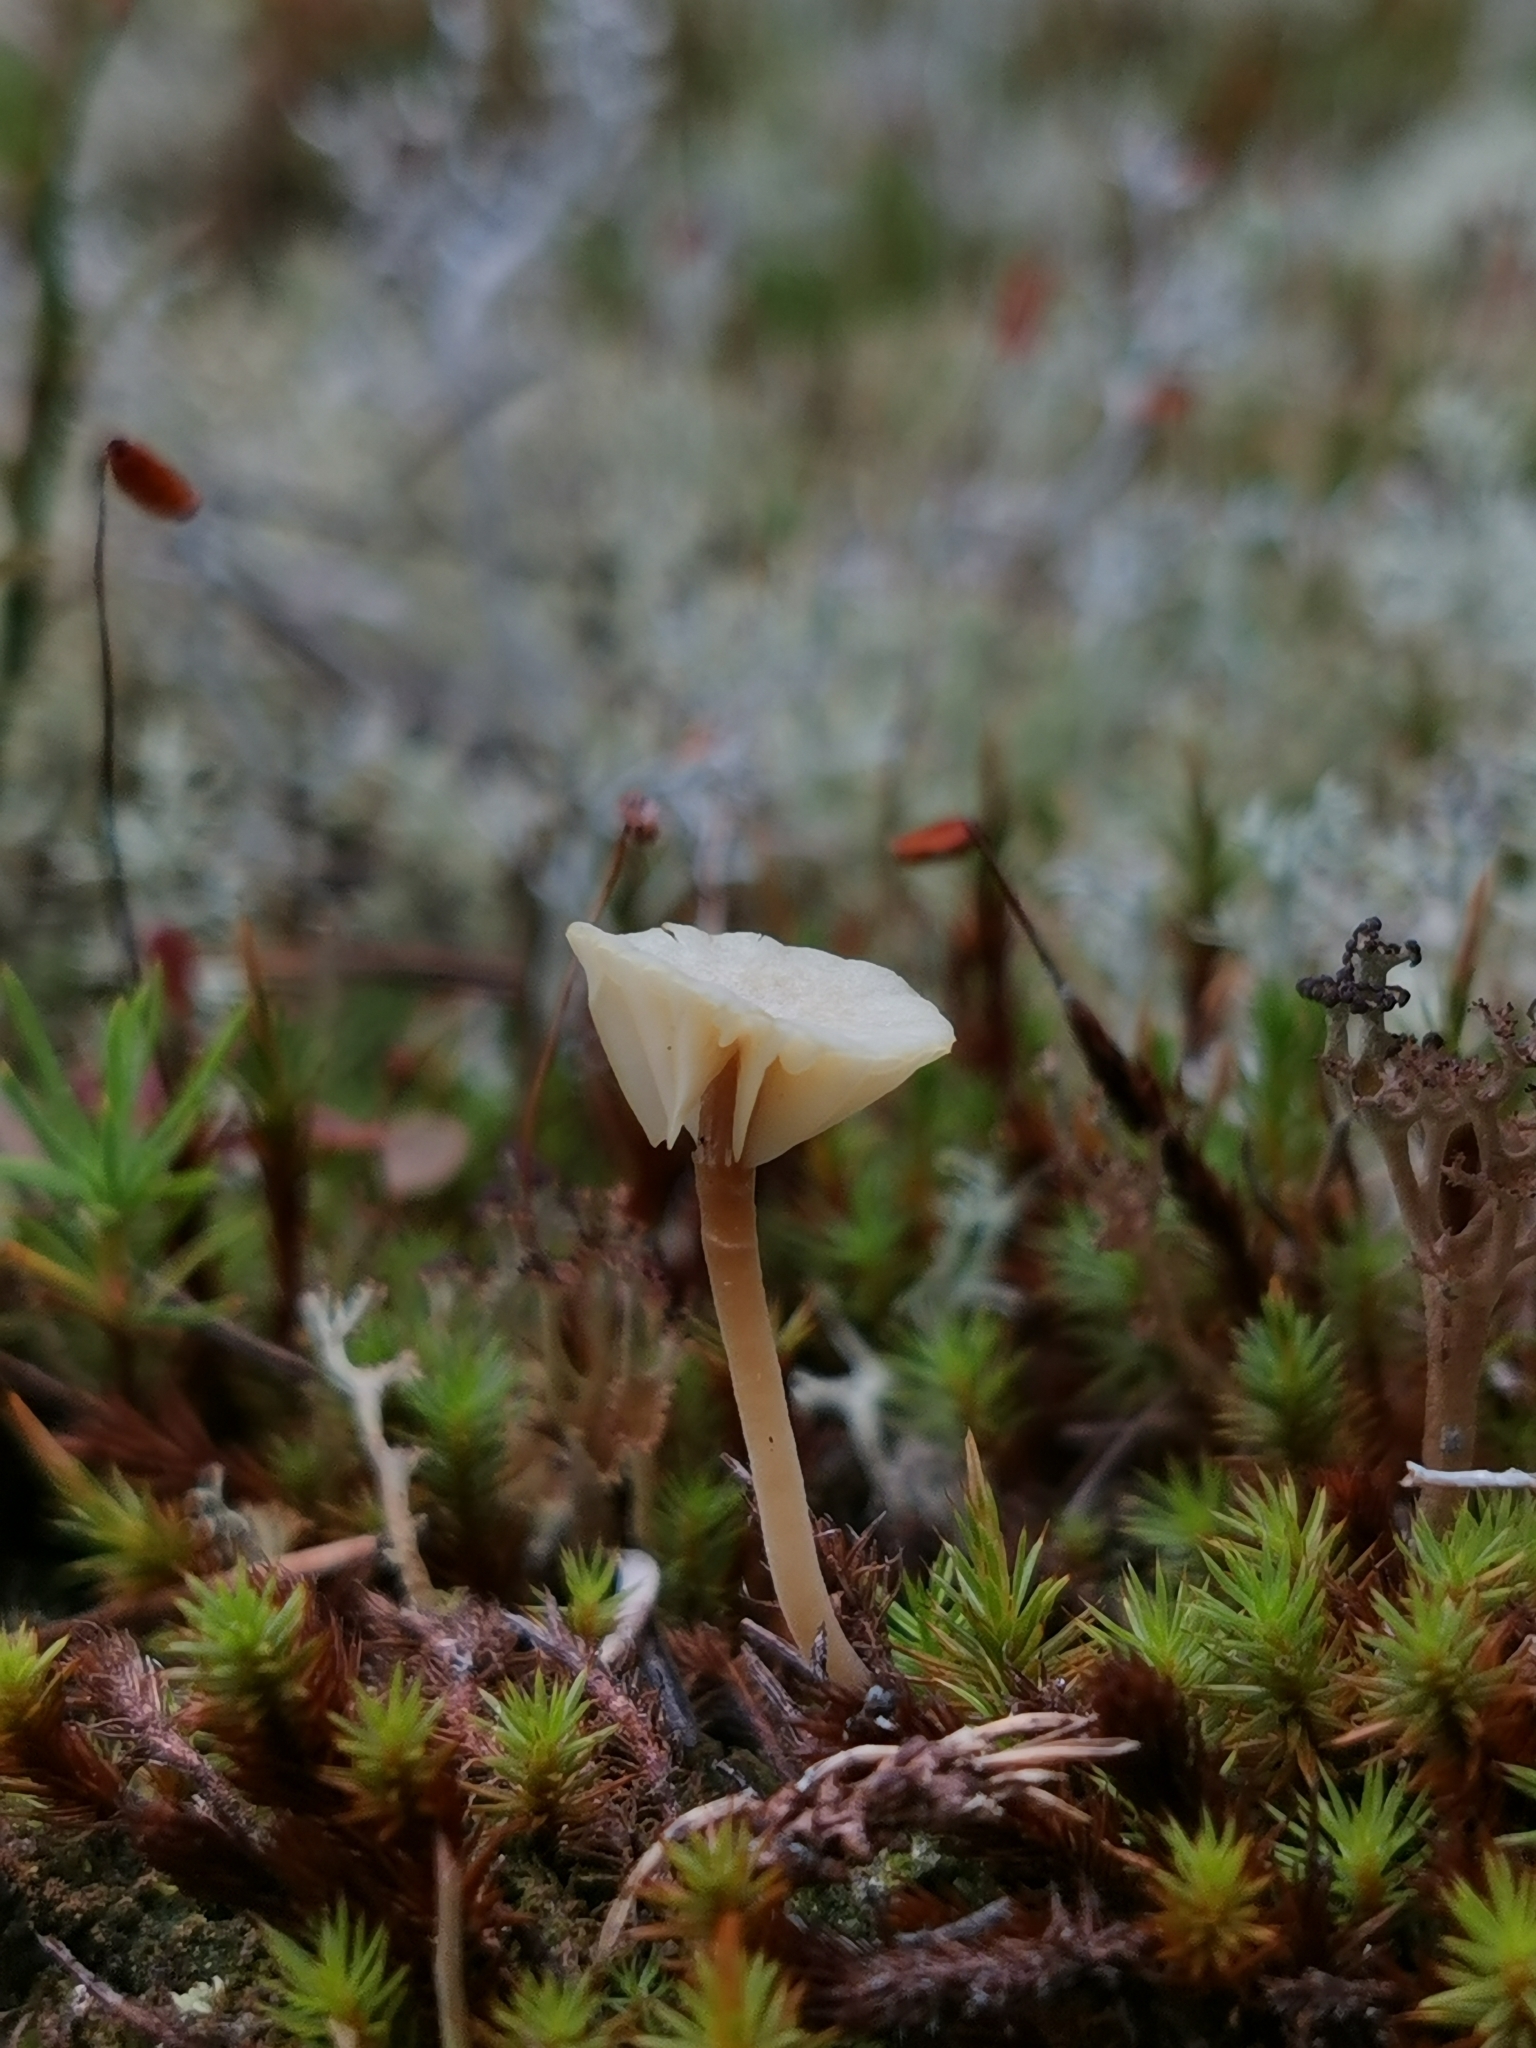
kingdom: Fungi
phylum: Basidiomycota
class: Agaricomycetes
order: Agaricales
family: Hygrophoraceae
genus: Lichenomphalia
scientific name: Lichenomphalia
